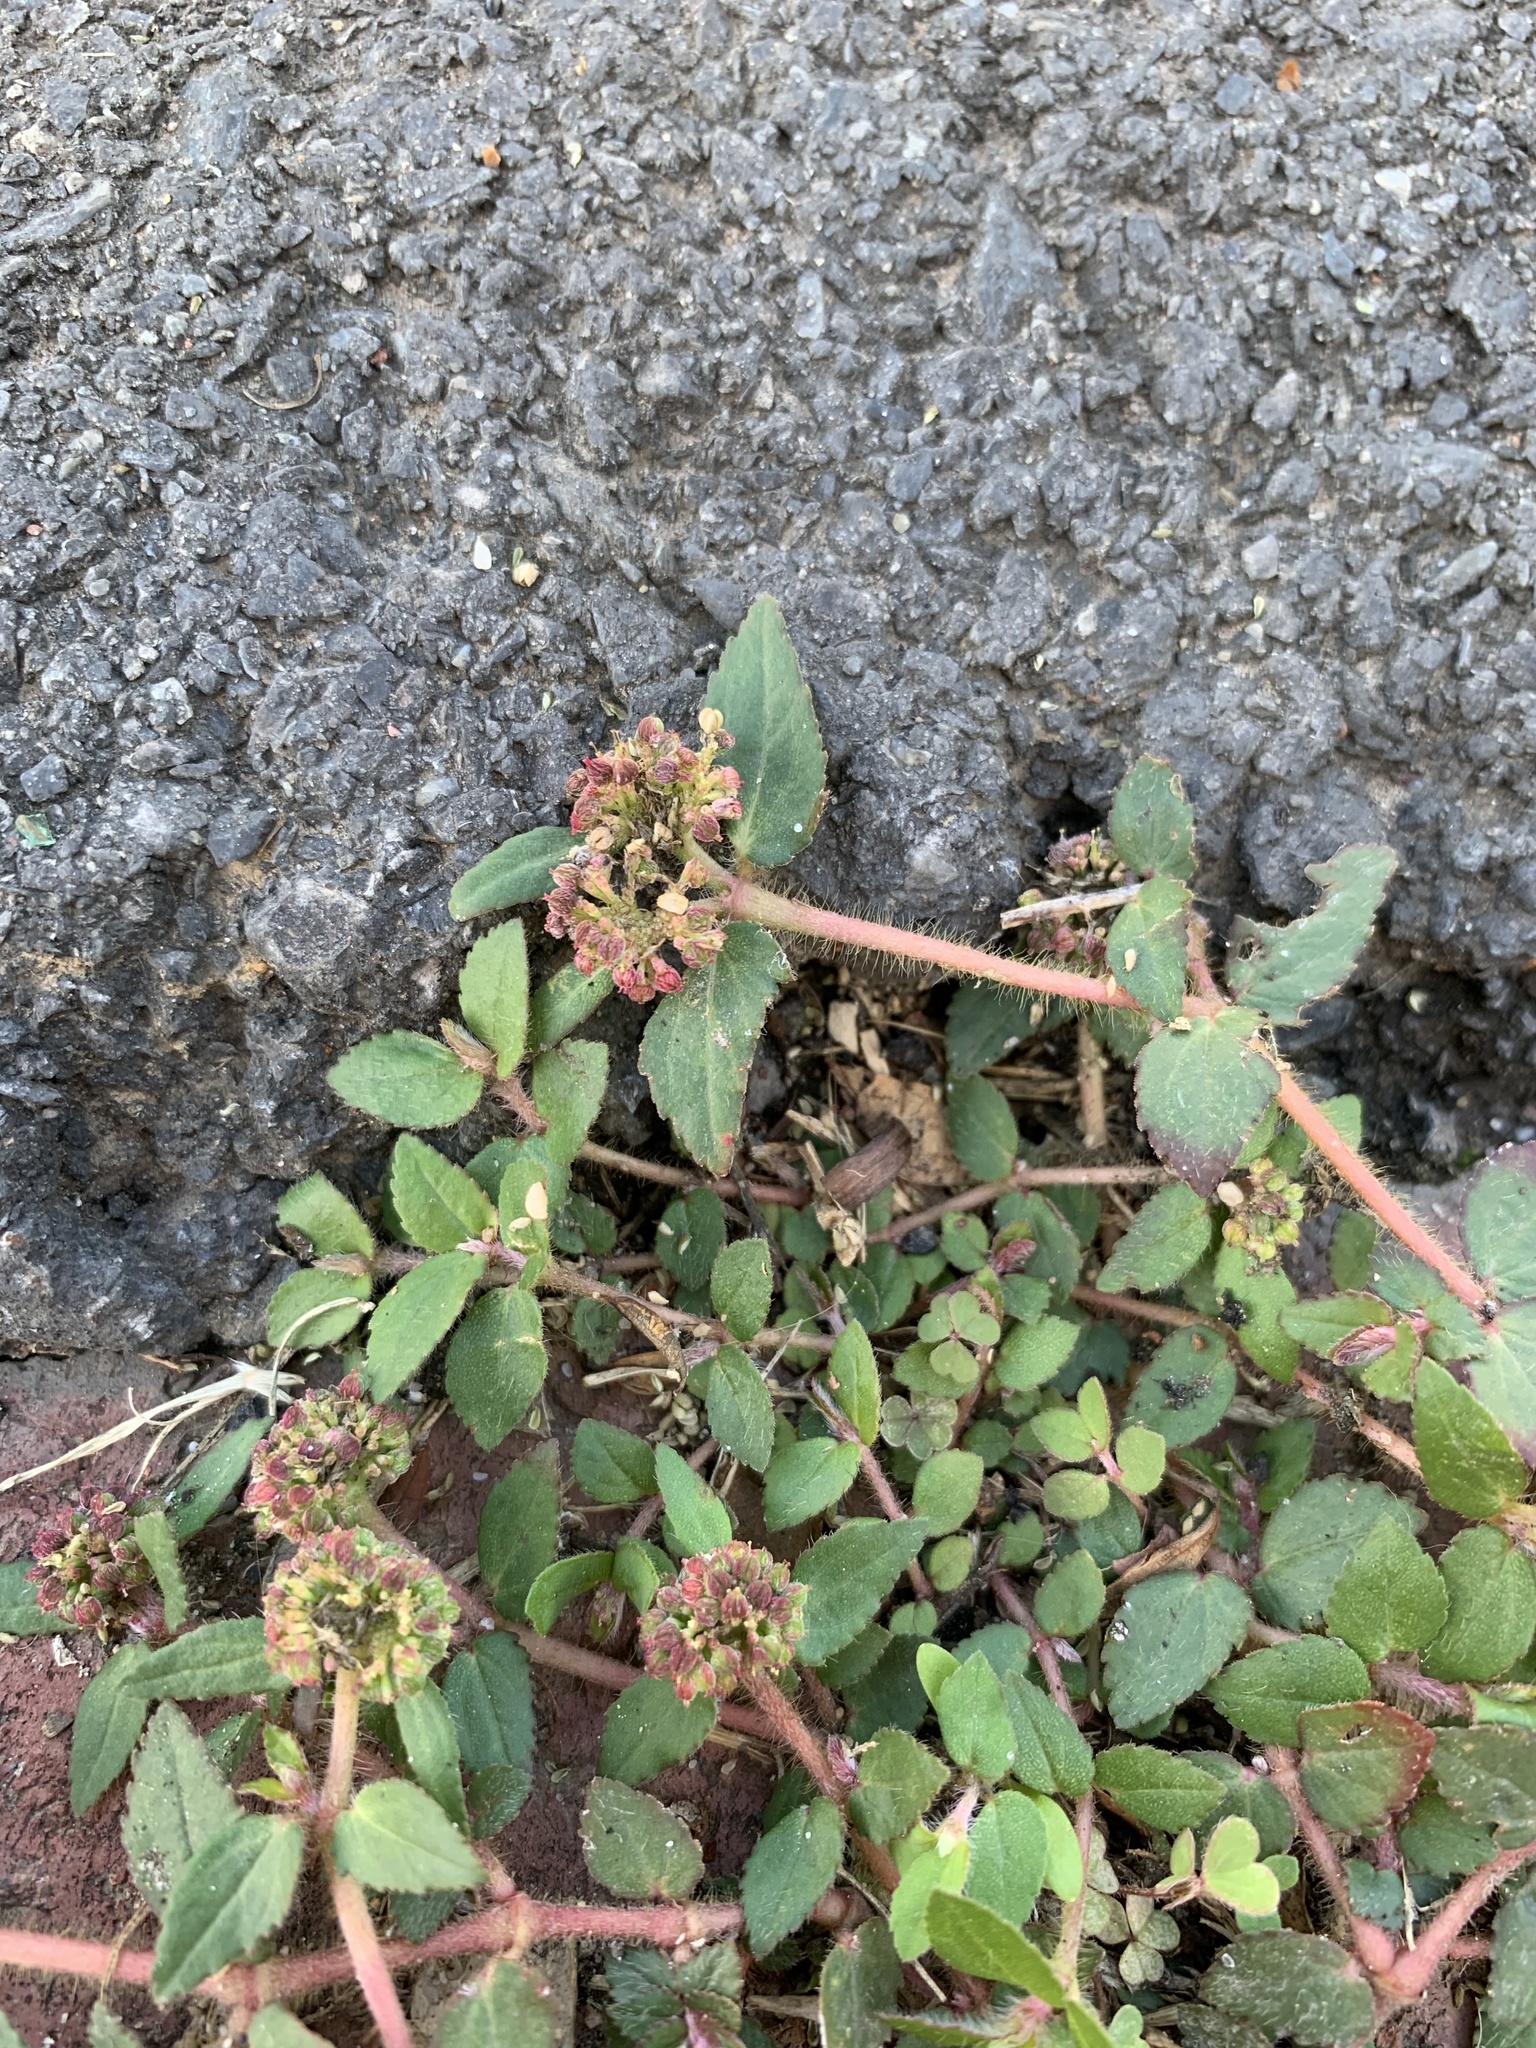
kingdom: Plantae
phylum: Tracheophyta
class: Magnoliopsida
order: Malpighiales
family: Euphorbiaceae
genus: Euphorbia
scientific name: Euphorbia ophthalmica
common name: Florida hammock sandmat
